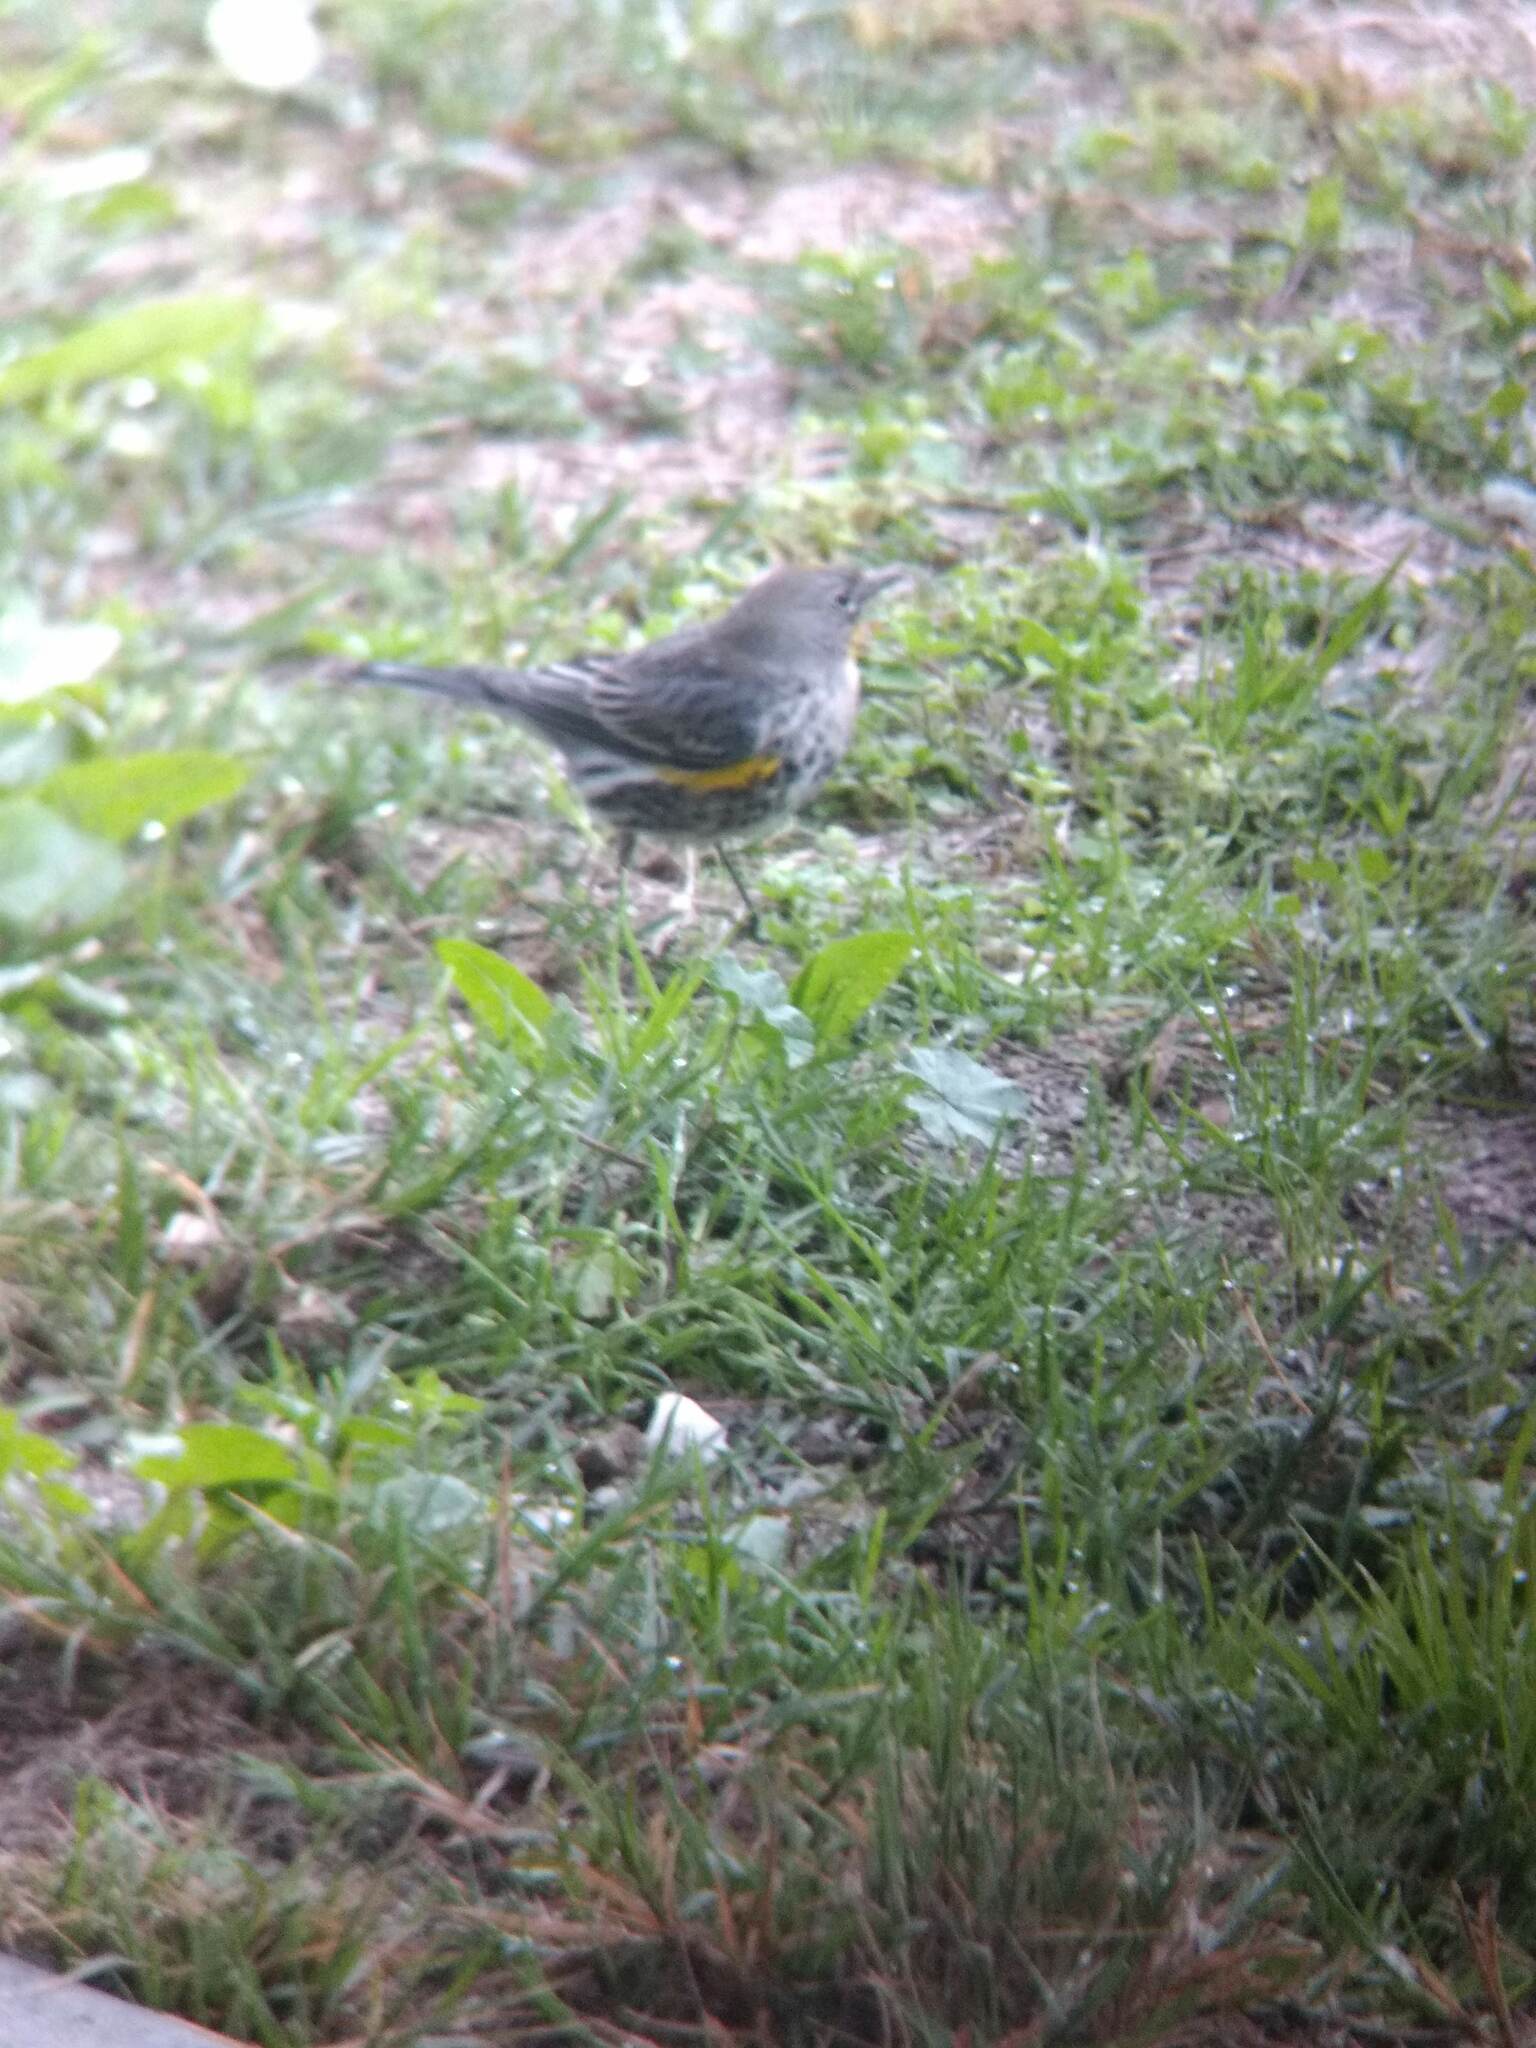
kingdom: Animalia
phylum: Chordata
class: Aves
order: Passeriformes
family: Parulidae
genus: Setophaga
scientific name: Setophaga coronata
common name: Myrtle warbler
